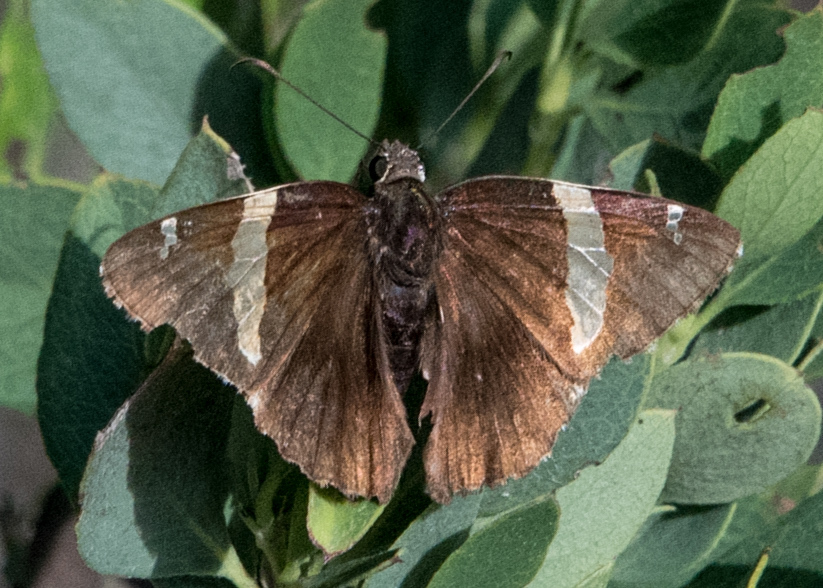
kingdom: Animalia
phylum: Arthropoda
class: Arachnida
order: Scorpiones
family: Bothriuridae
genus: Telegonus
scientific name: Telegonus cellus
